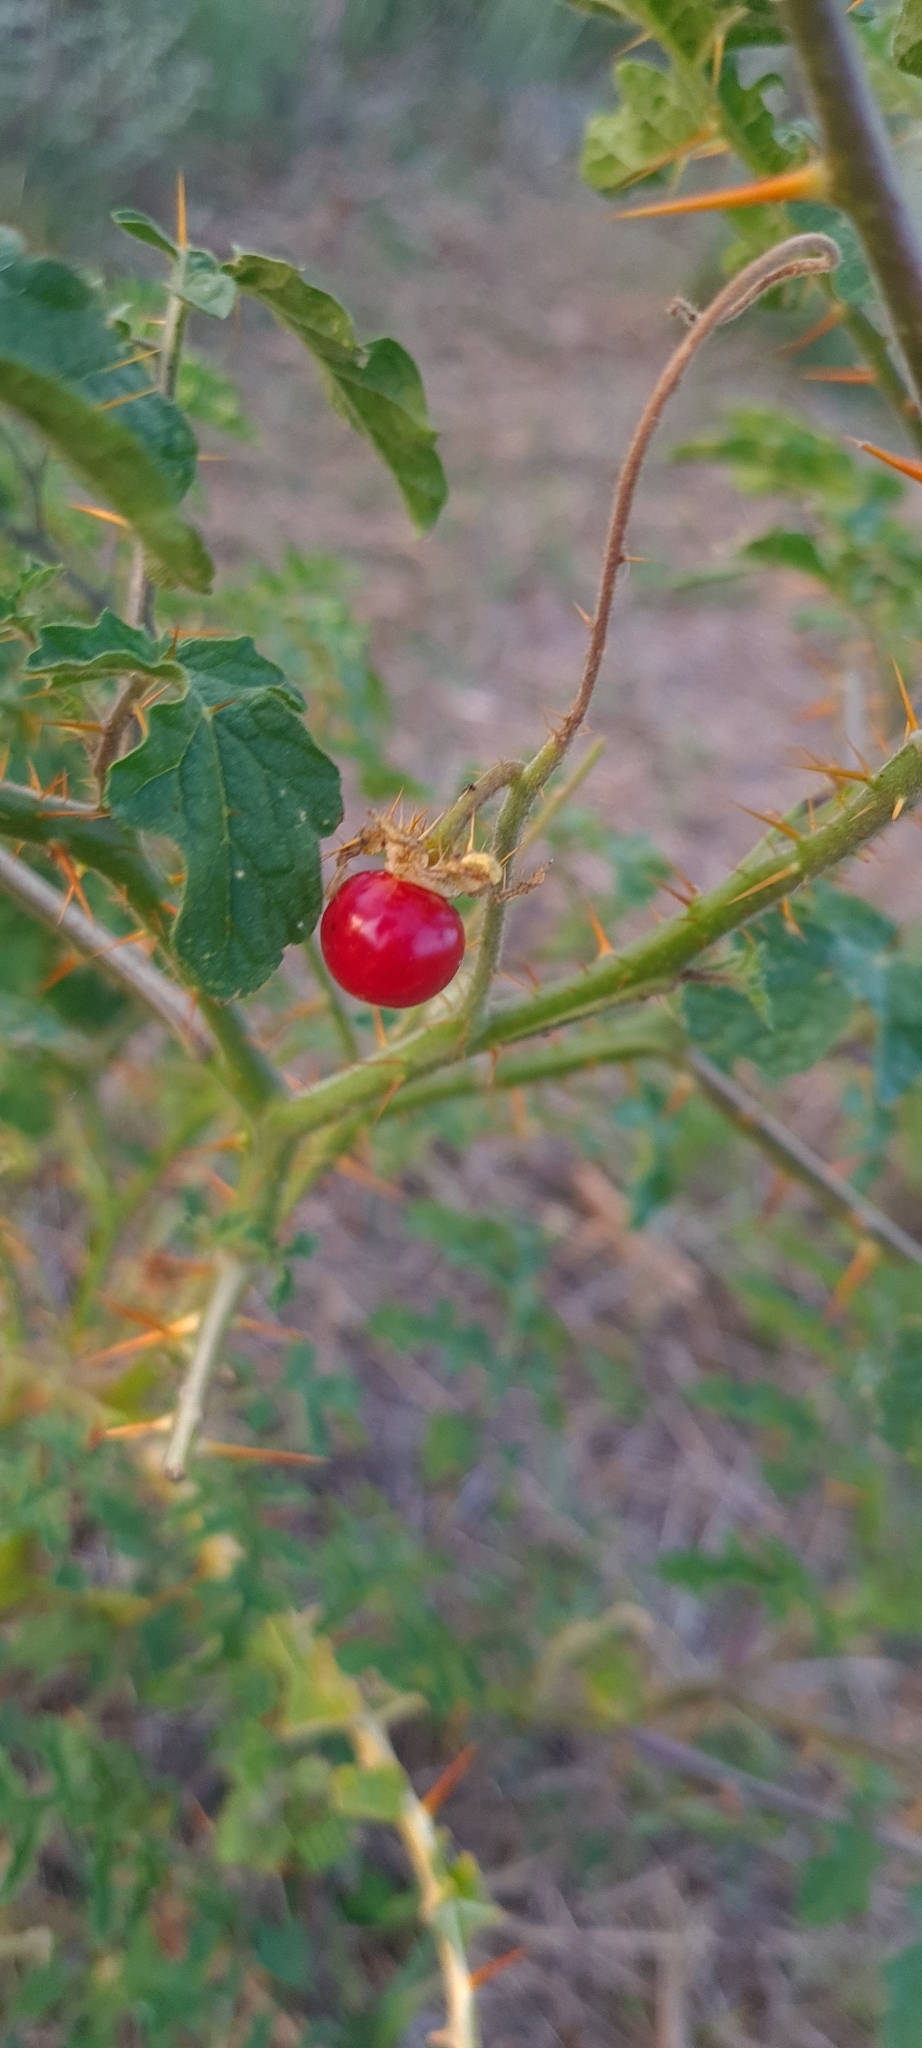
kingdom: Plantae
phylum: Tracheophyta
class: Magnoliopsida
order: Solanales
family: Solanaceae
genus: Solanum
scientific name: Solanum sisymbriifolium
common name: Red buffalo-bur
